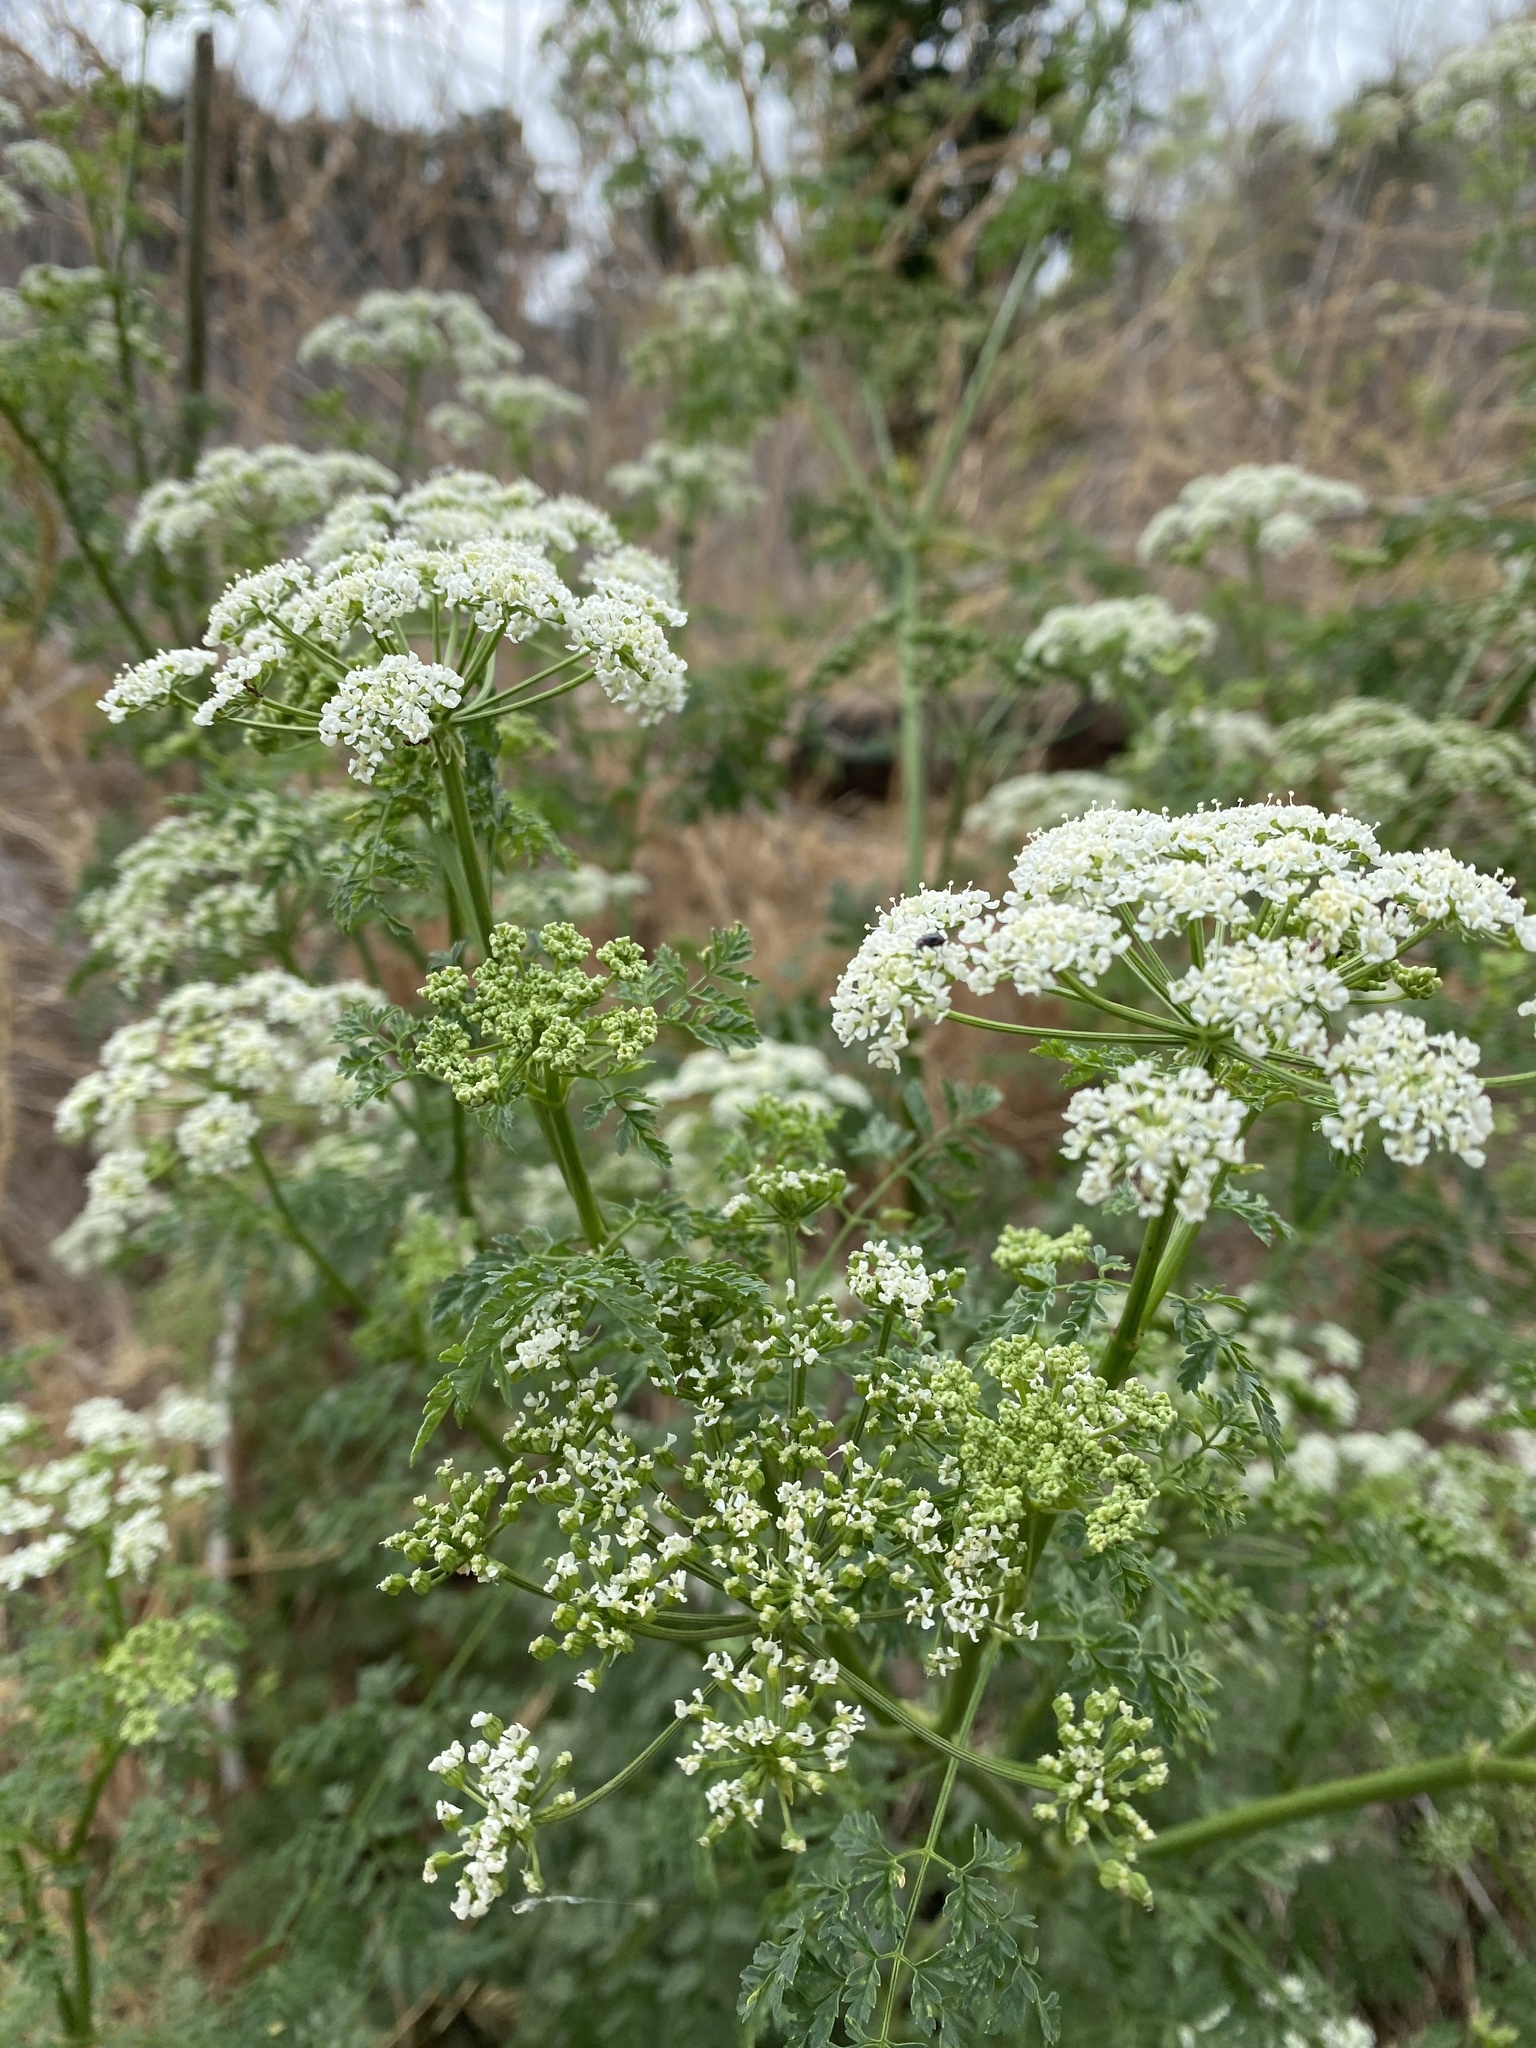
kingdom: Plantae
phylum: Tracheophyta
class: Magnoliopsida
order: Apiales
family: Apiaceae
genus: Conium
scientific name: Conium maculatum
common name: Hemlock
